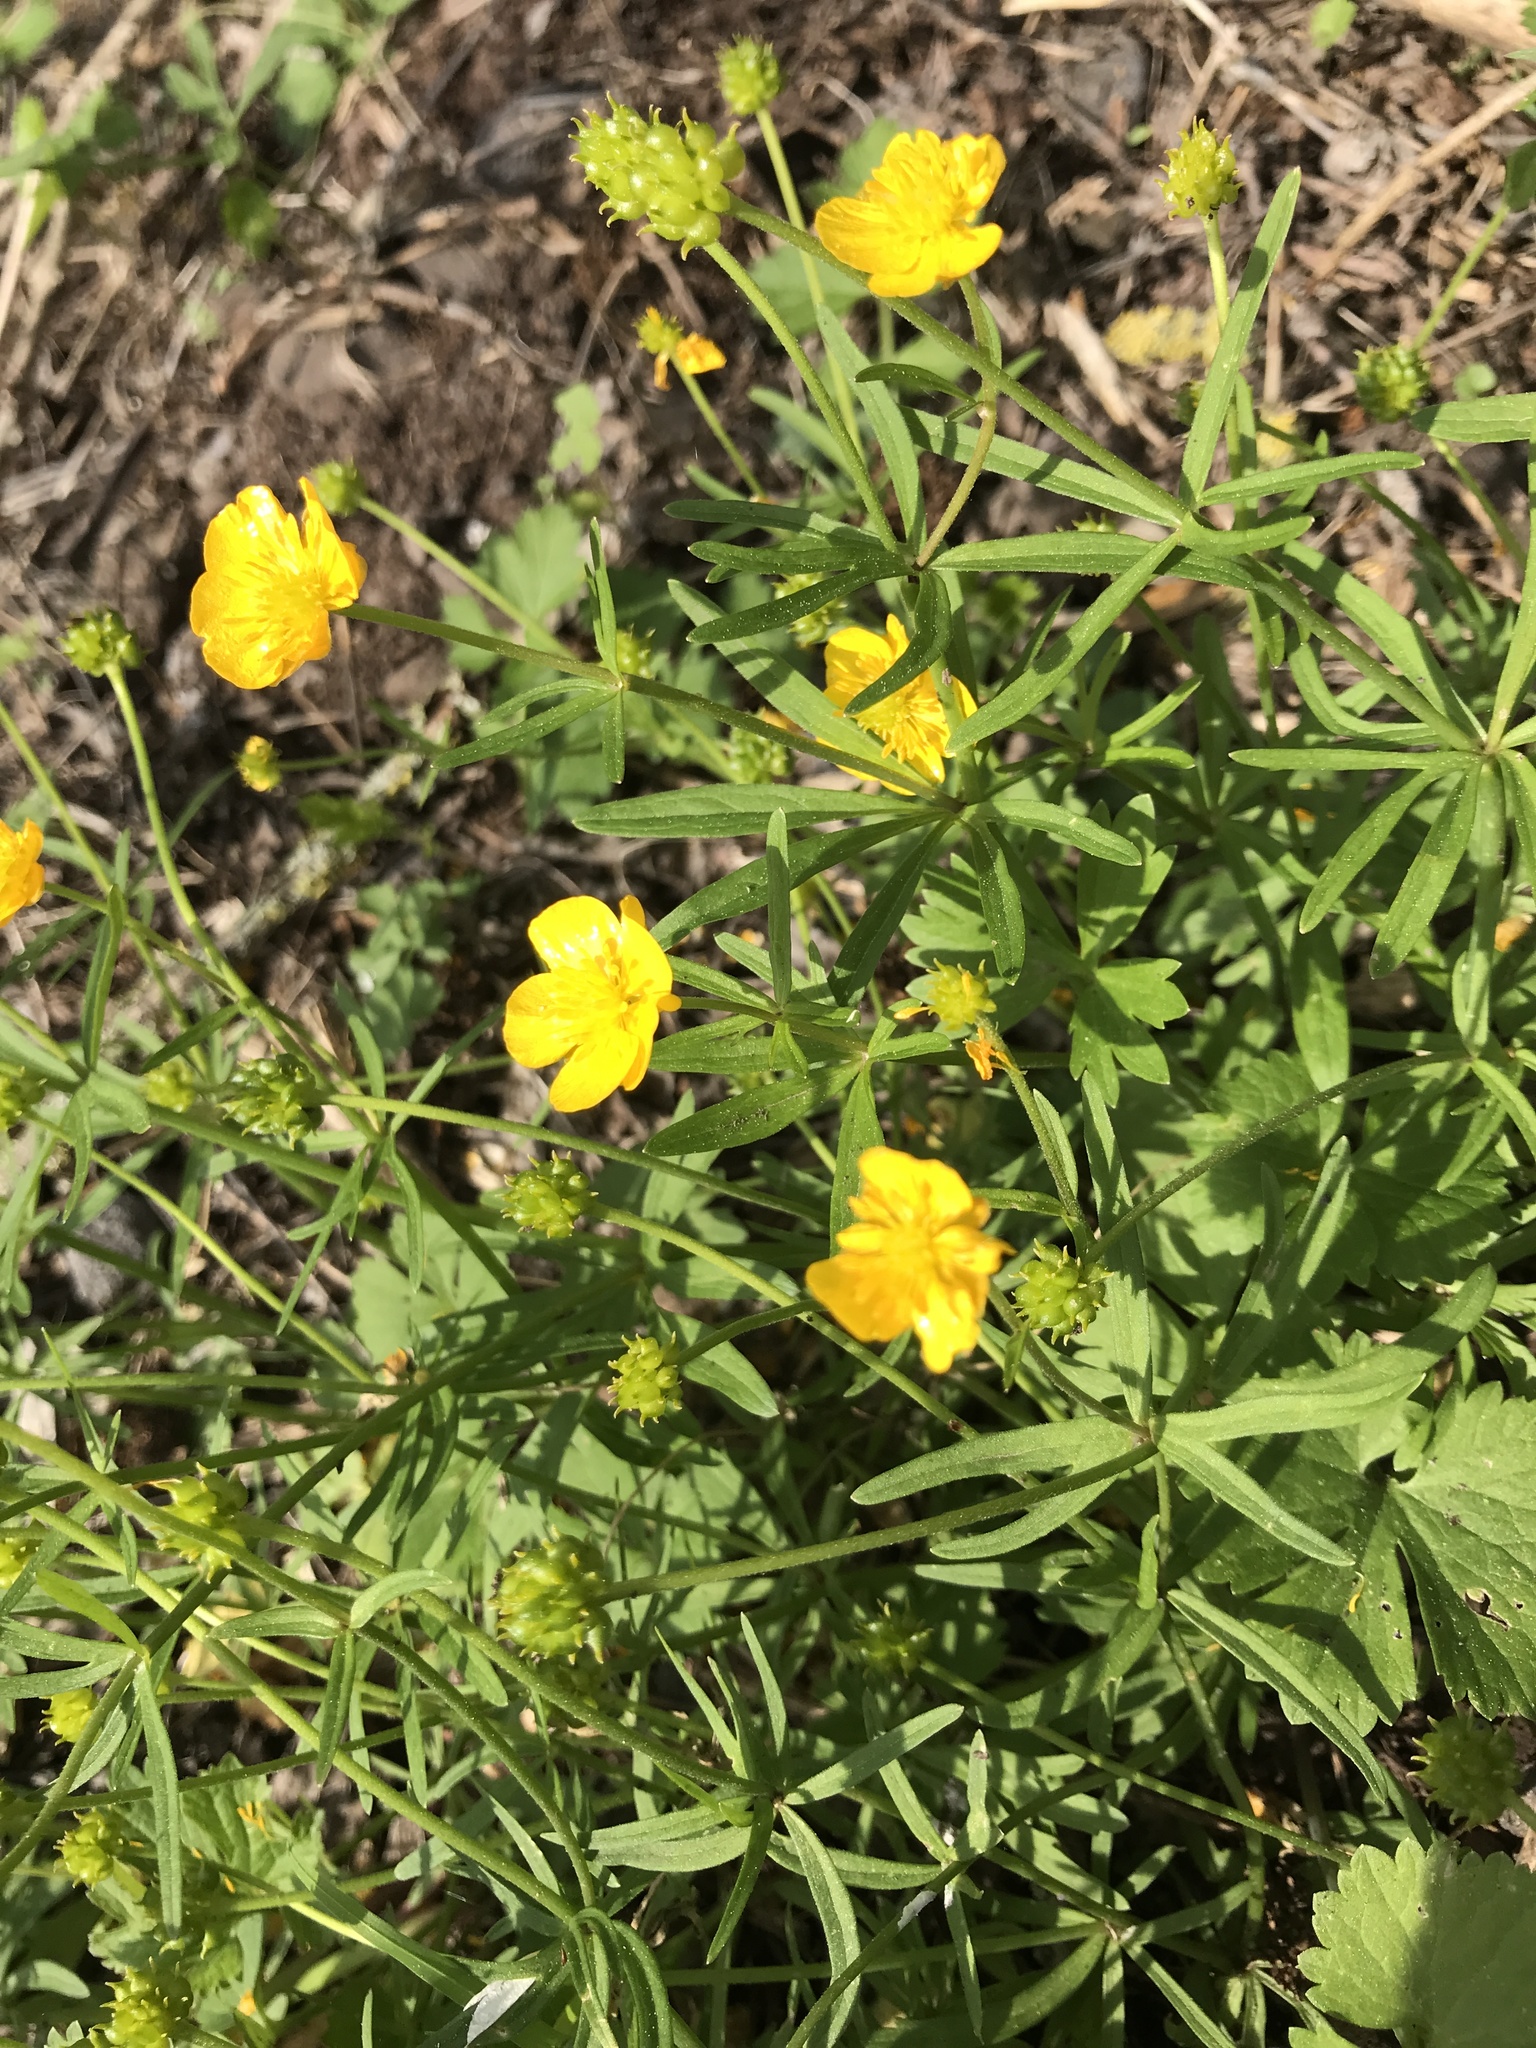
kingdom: Plantae
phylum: Tracheophyta
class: Magnoliopsida
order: Ranunculales
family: Ranunculaceae
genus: Ranunculus
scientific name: Ranunculus auricomus
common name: Goldilocks buttercup
